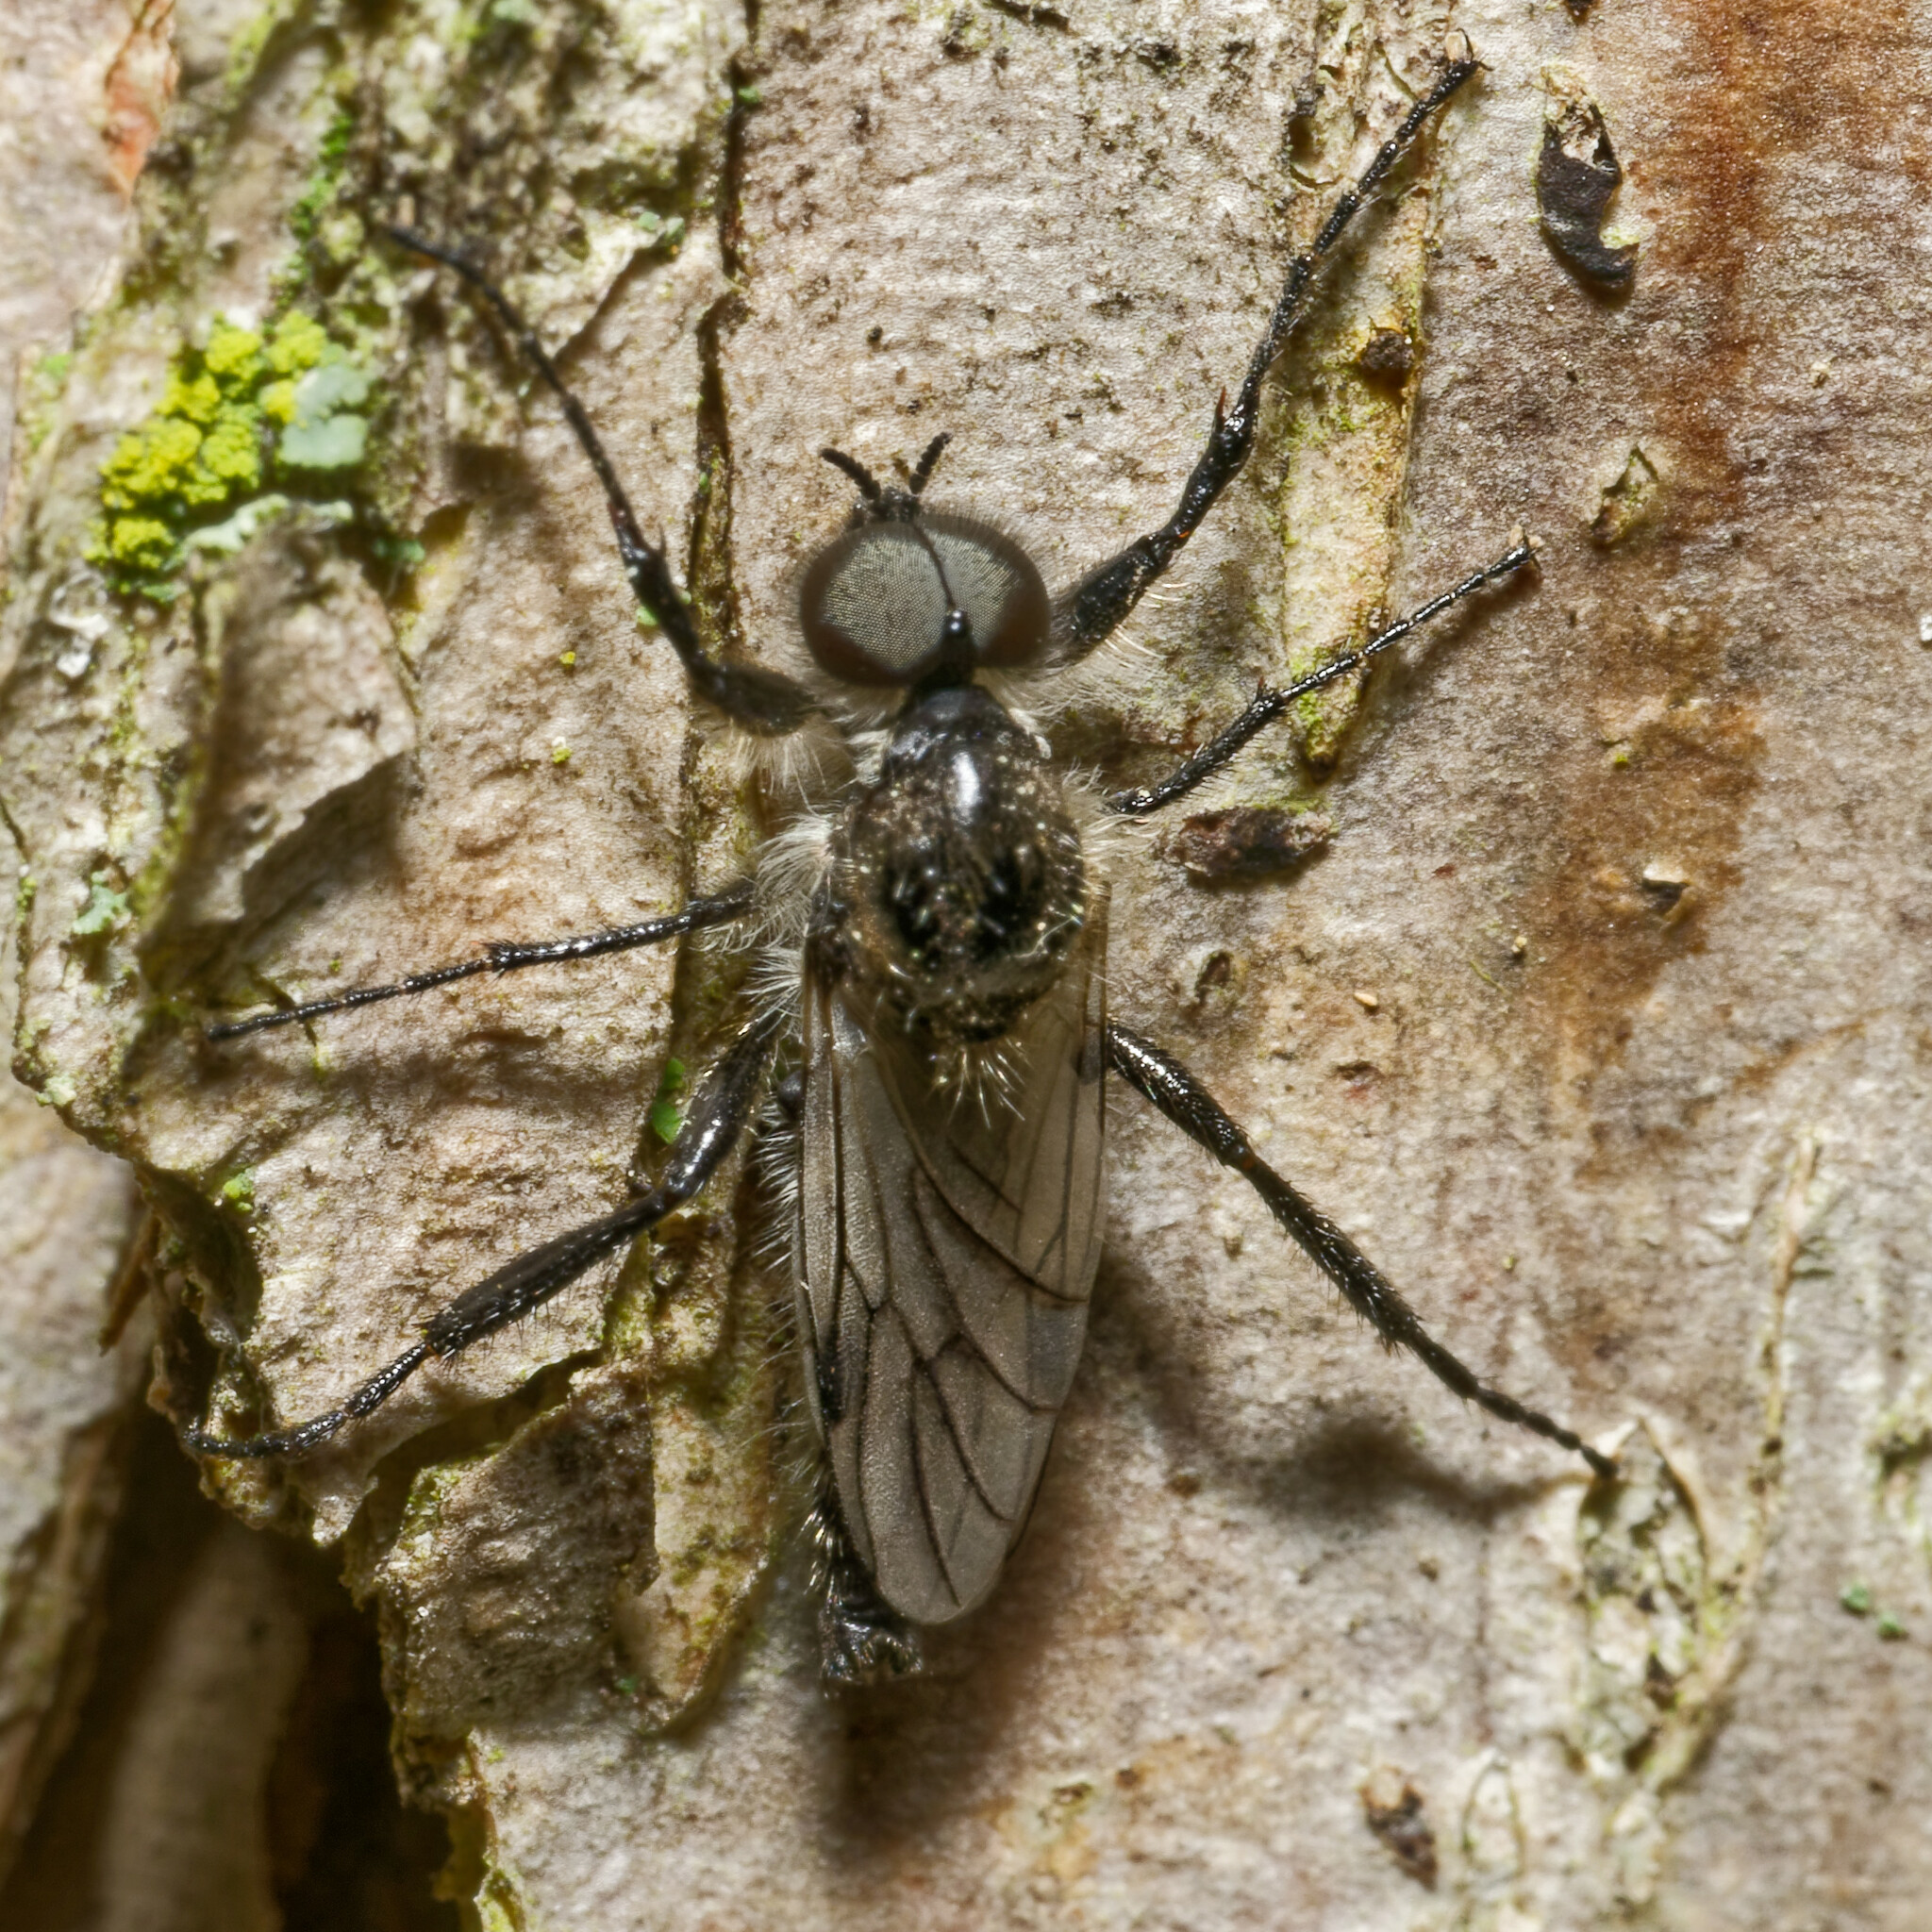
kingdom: Animalia
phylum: Arthropoda
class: Insecta
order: Diptera
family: Bibionidae
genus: Bibio
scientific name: Bibio albipennis
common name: White-winged march fly
